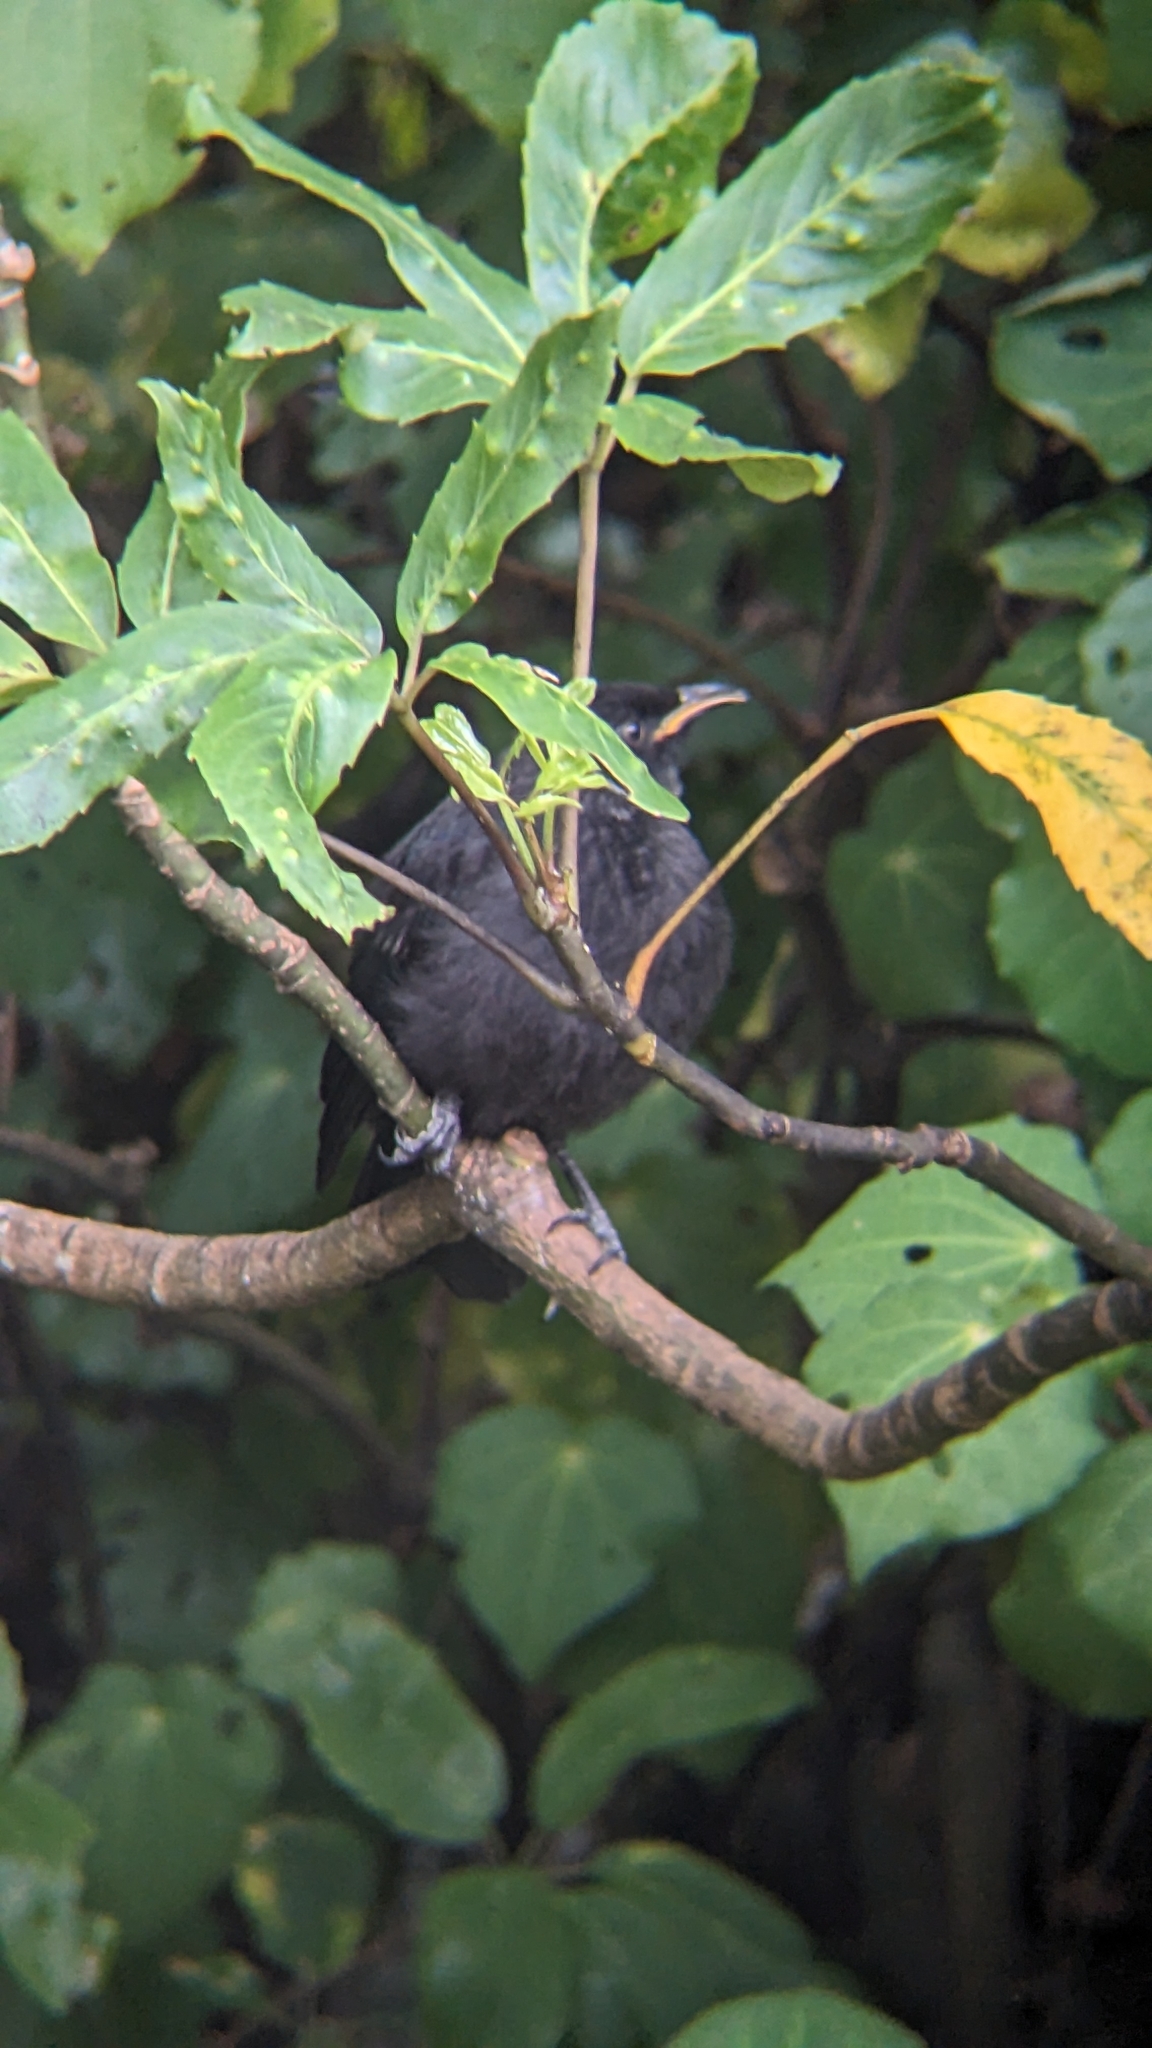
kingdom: Animalia
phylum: Chordata
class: Aves
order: Passeriformes
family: Meliphagidae
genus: Prosthemadera
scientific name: Prosthemadera novaeseelandiae
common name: Tui
